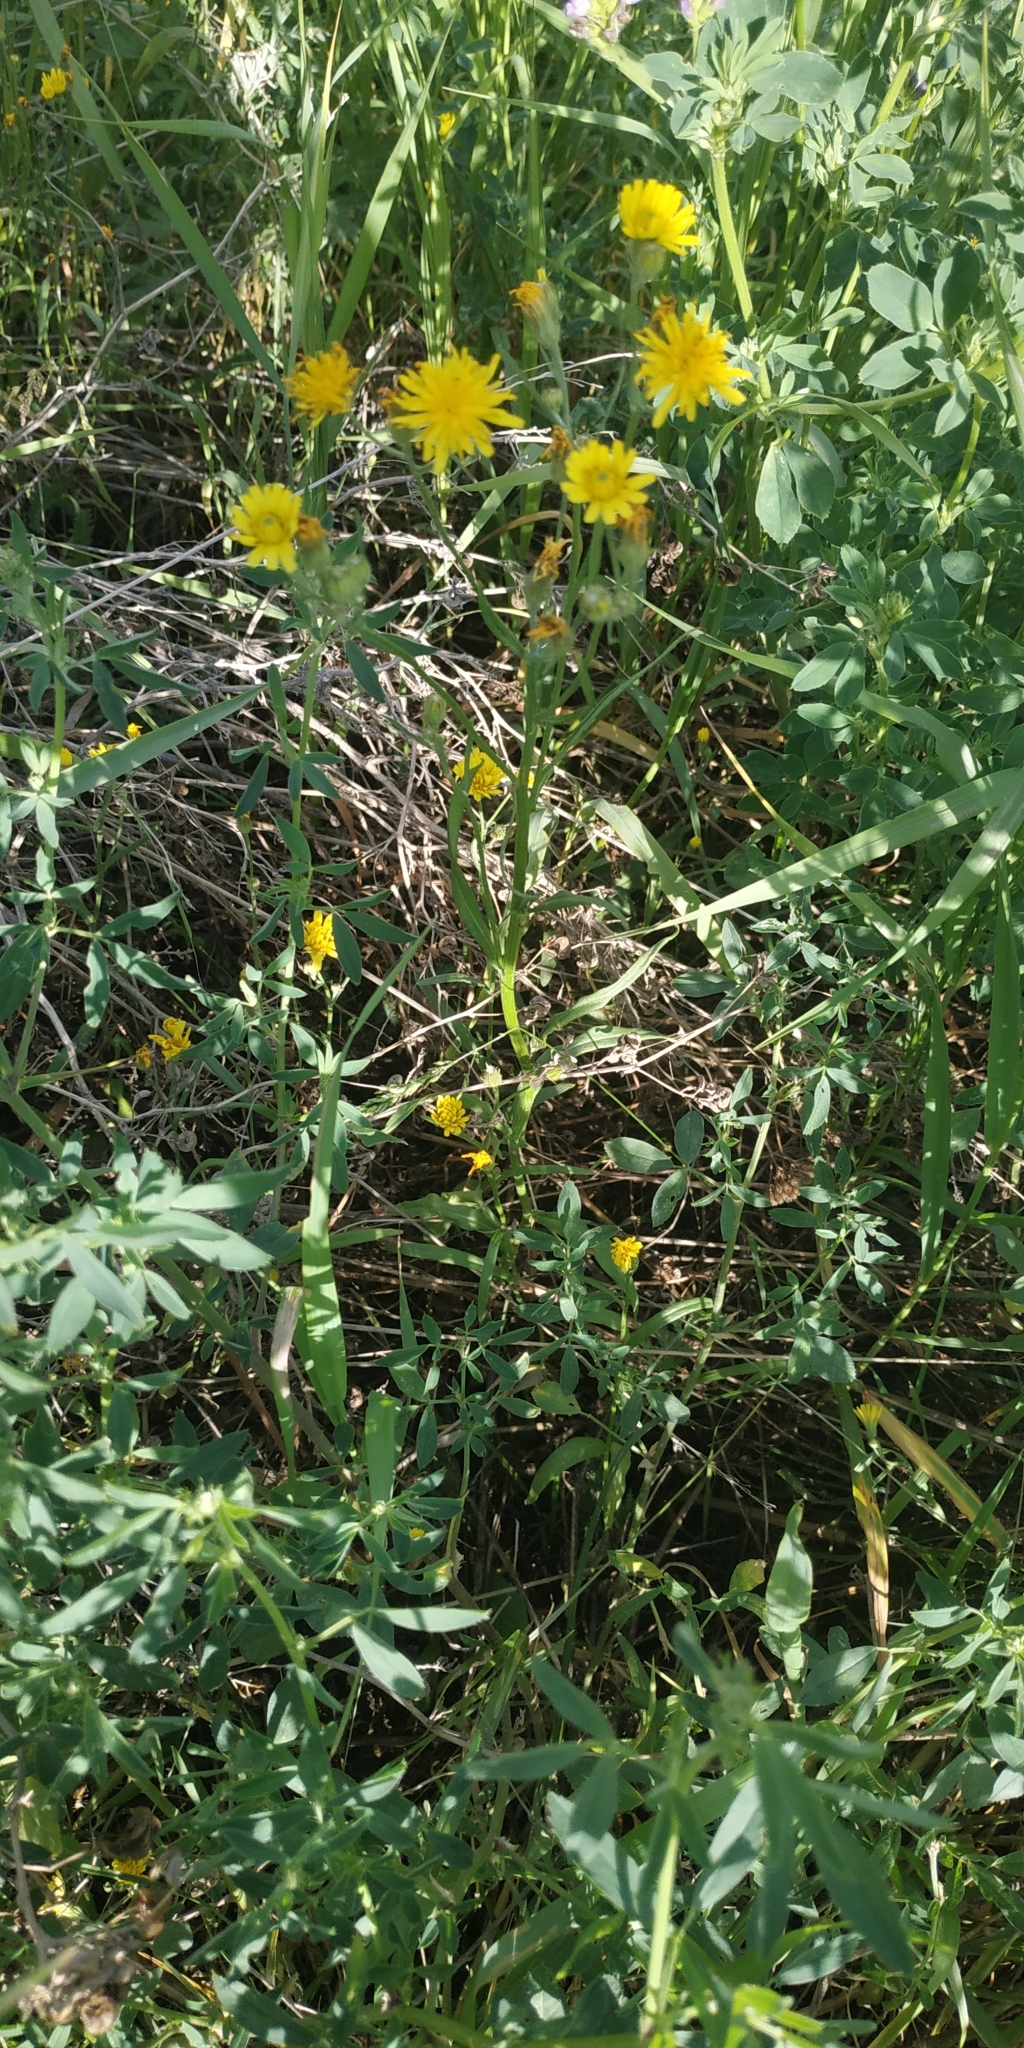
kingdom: Plantae
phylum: Tracheophyta
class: Magnoliopsida
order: Asterales
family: Asteraceae
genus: Crepis
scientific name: Crepis tectorum
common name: Narrow-leaved hawk's-beard
